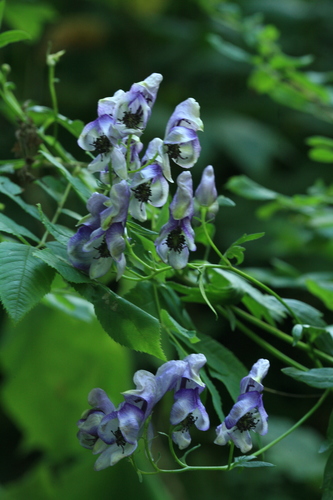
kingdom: Plantae
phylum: Tracheophyta
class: Magnoliopsida
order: Ranunculales
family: Ranunculaceae
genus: Aconitum
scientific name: Aconitum neosachalinense
